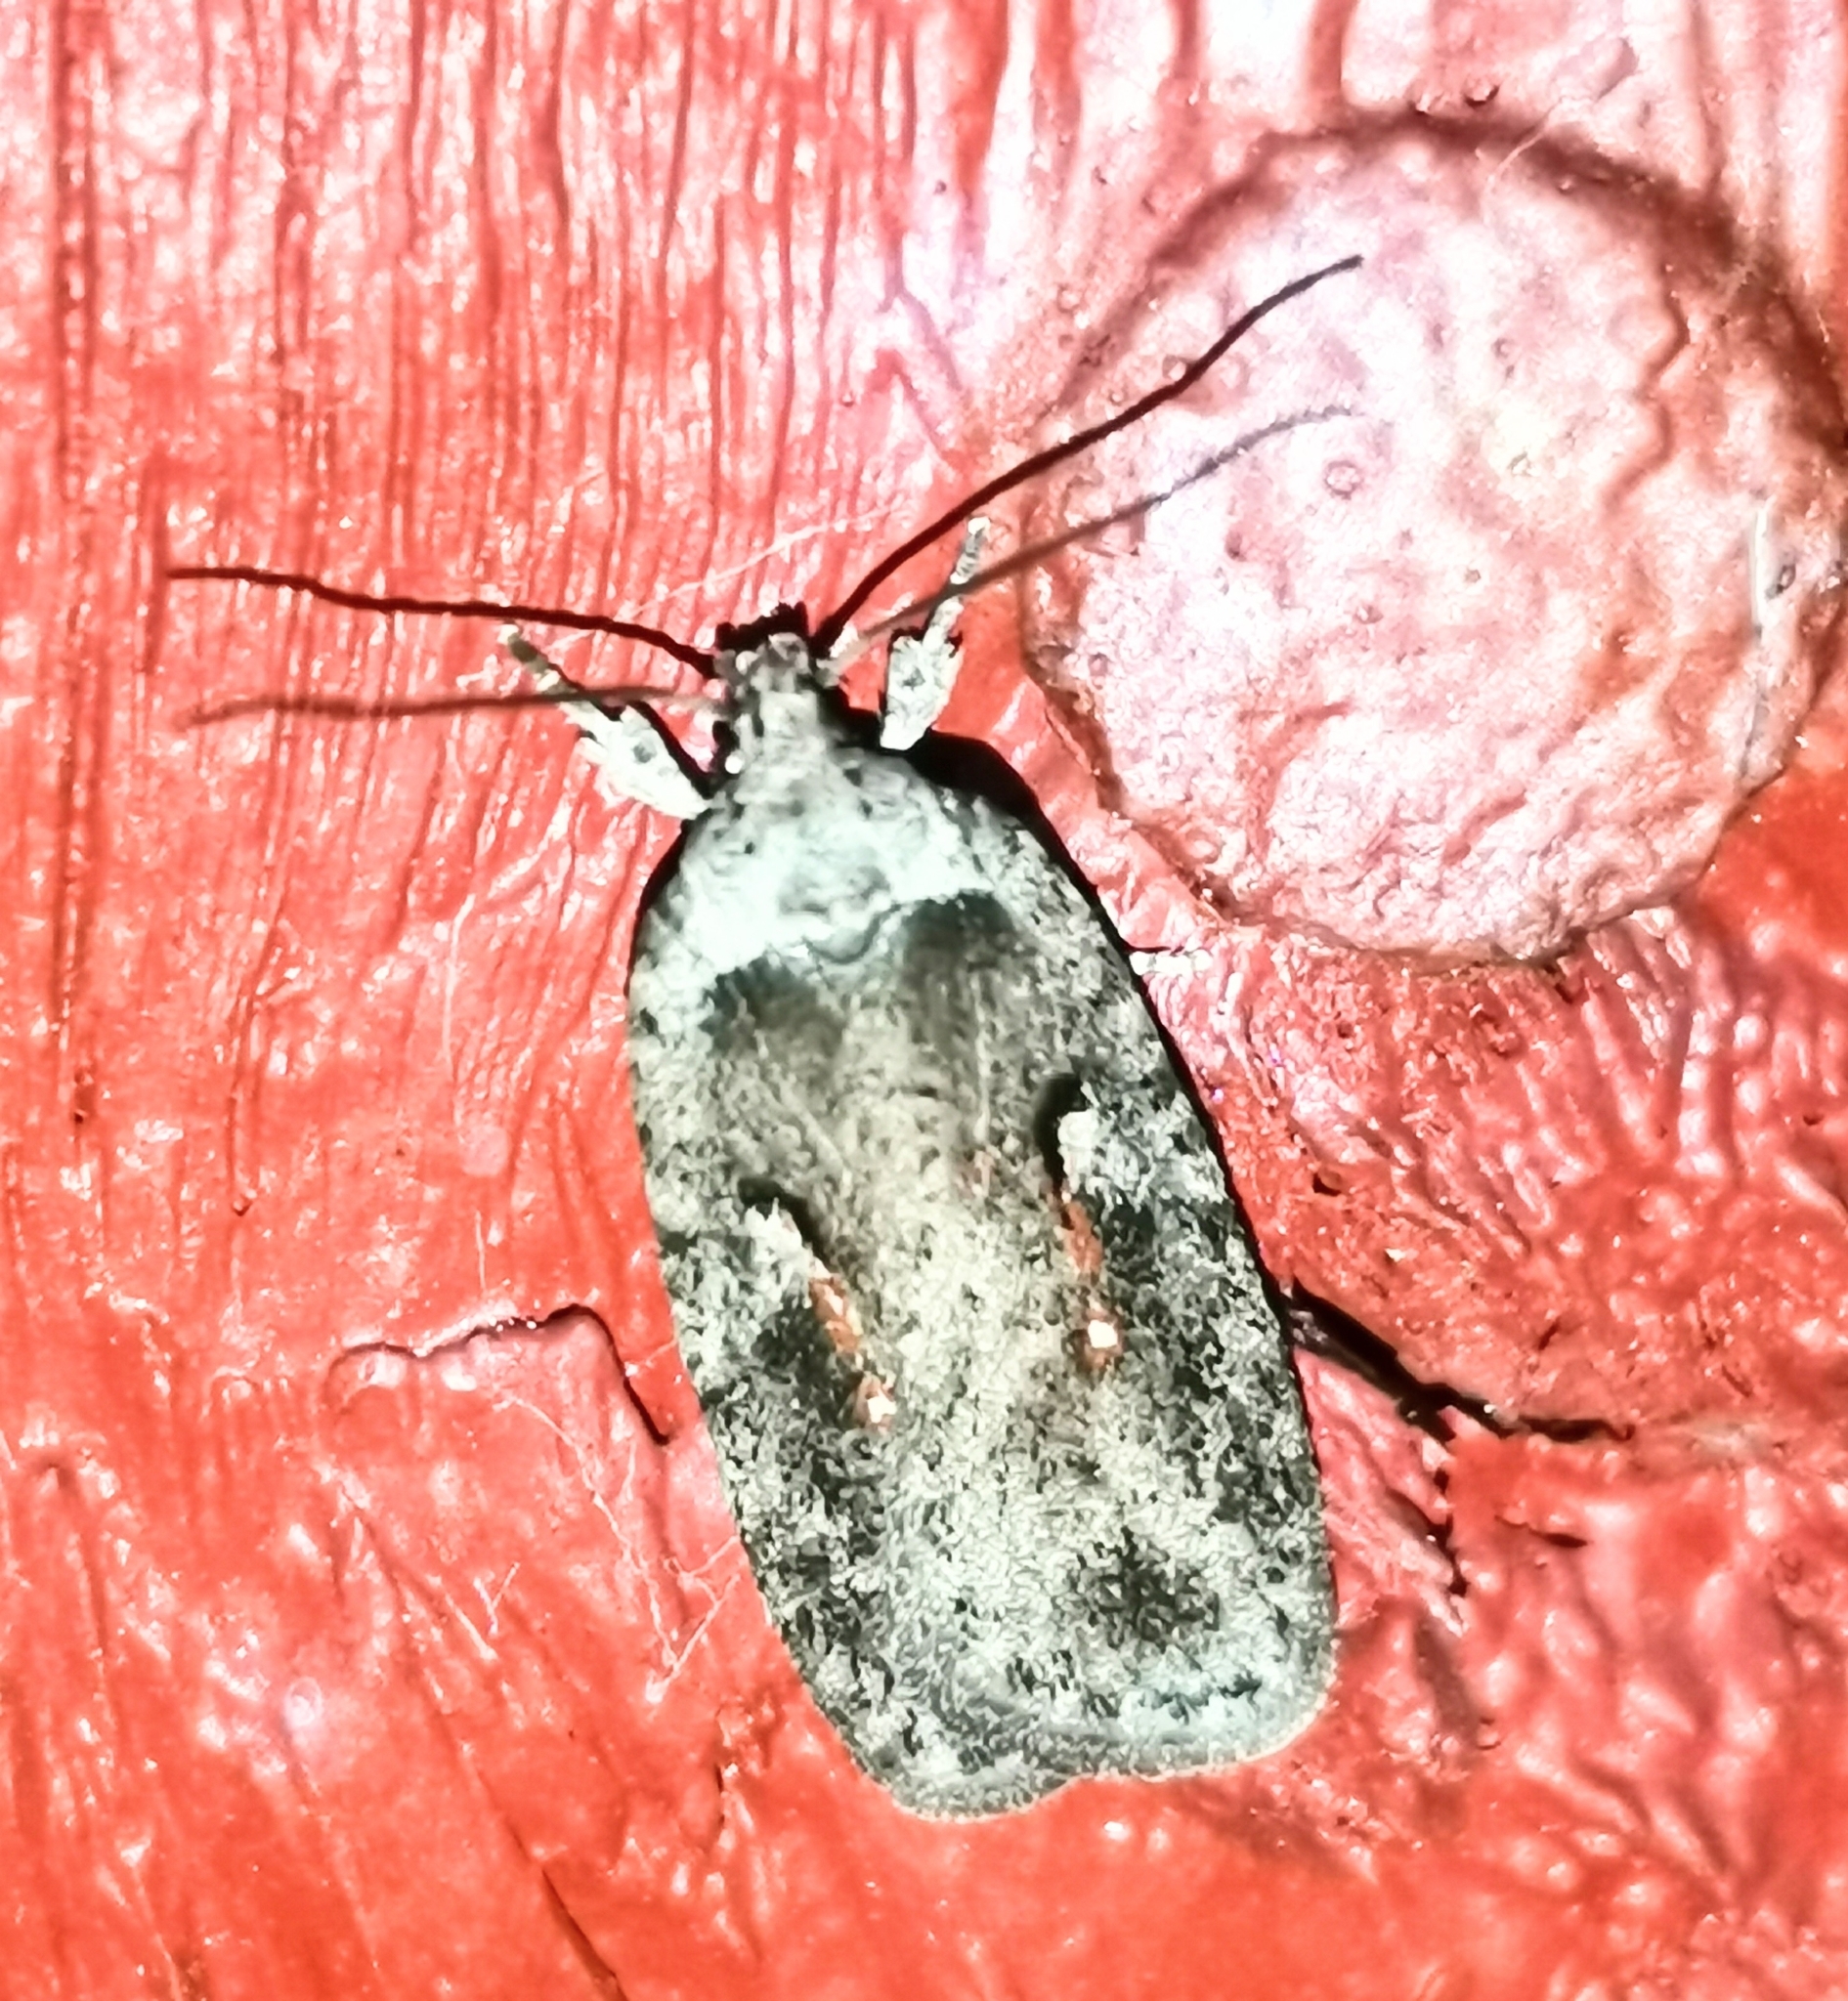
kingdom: Animalia
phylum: Arthropoda
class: Insecta
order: Lepidoptera
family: Depressariidae
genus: Agonopterix
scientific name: Agonopterix ocellana
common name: Red-letter flat-body
